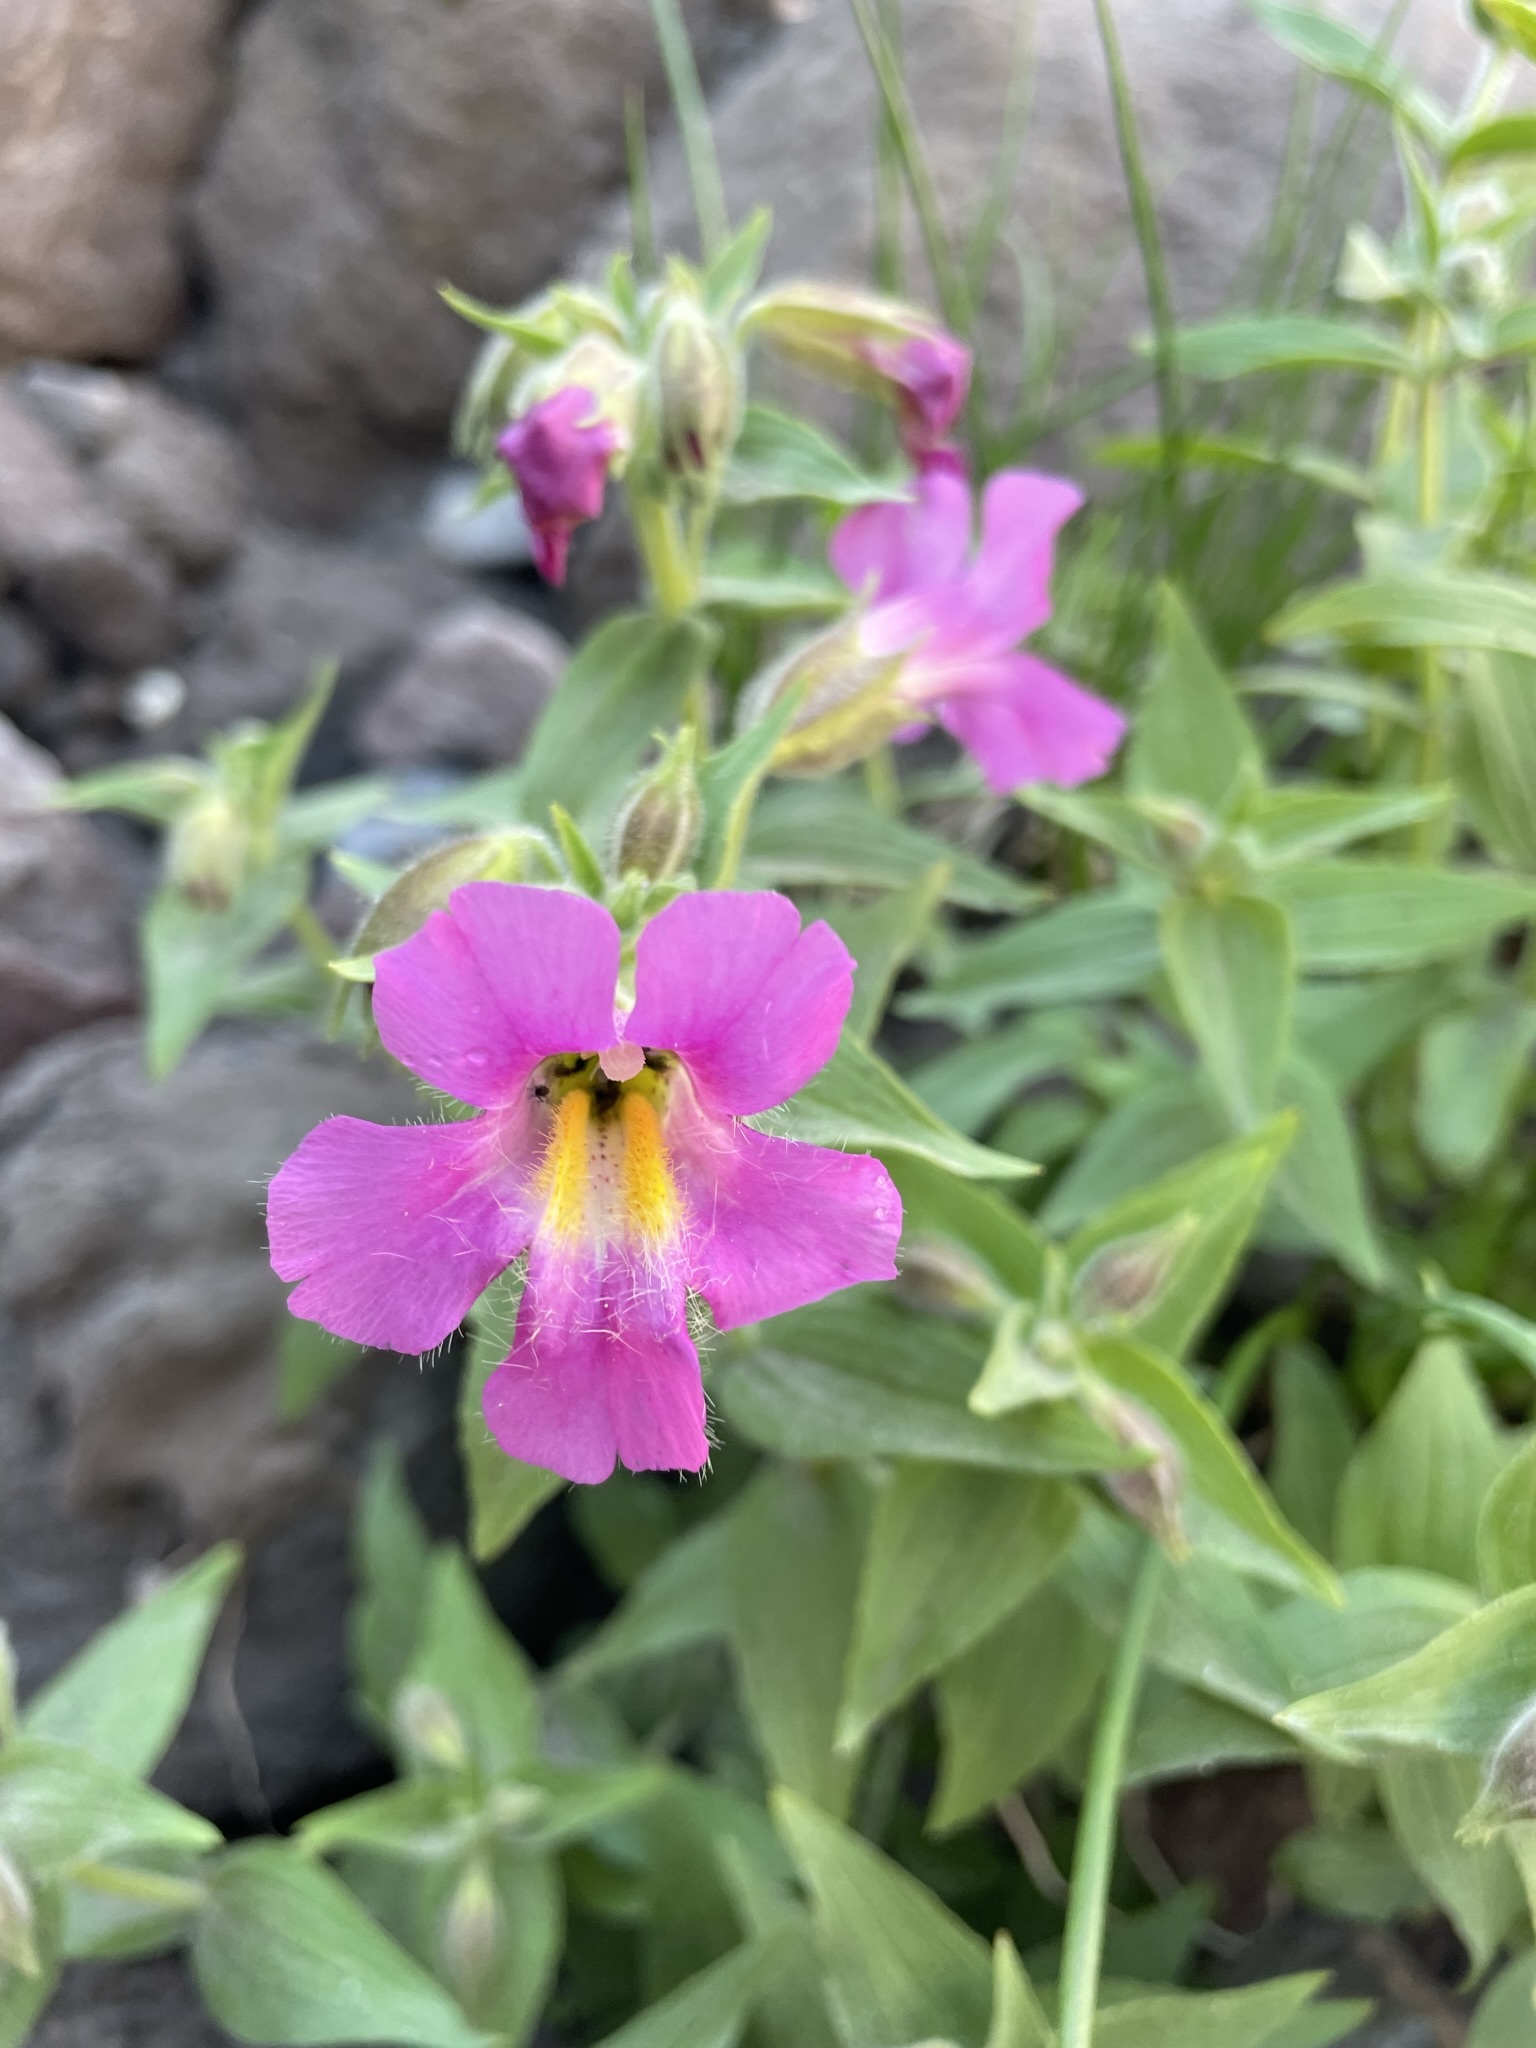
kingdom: Plantae
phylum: Tracheophyta
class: Magnoliopsida
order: Lamiales
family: Phrymaceae
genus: Erythranthe
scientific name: Erythranthe lewisii
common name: Lewis's monkey-flower
